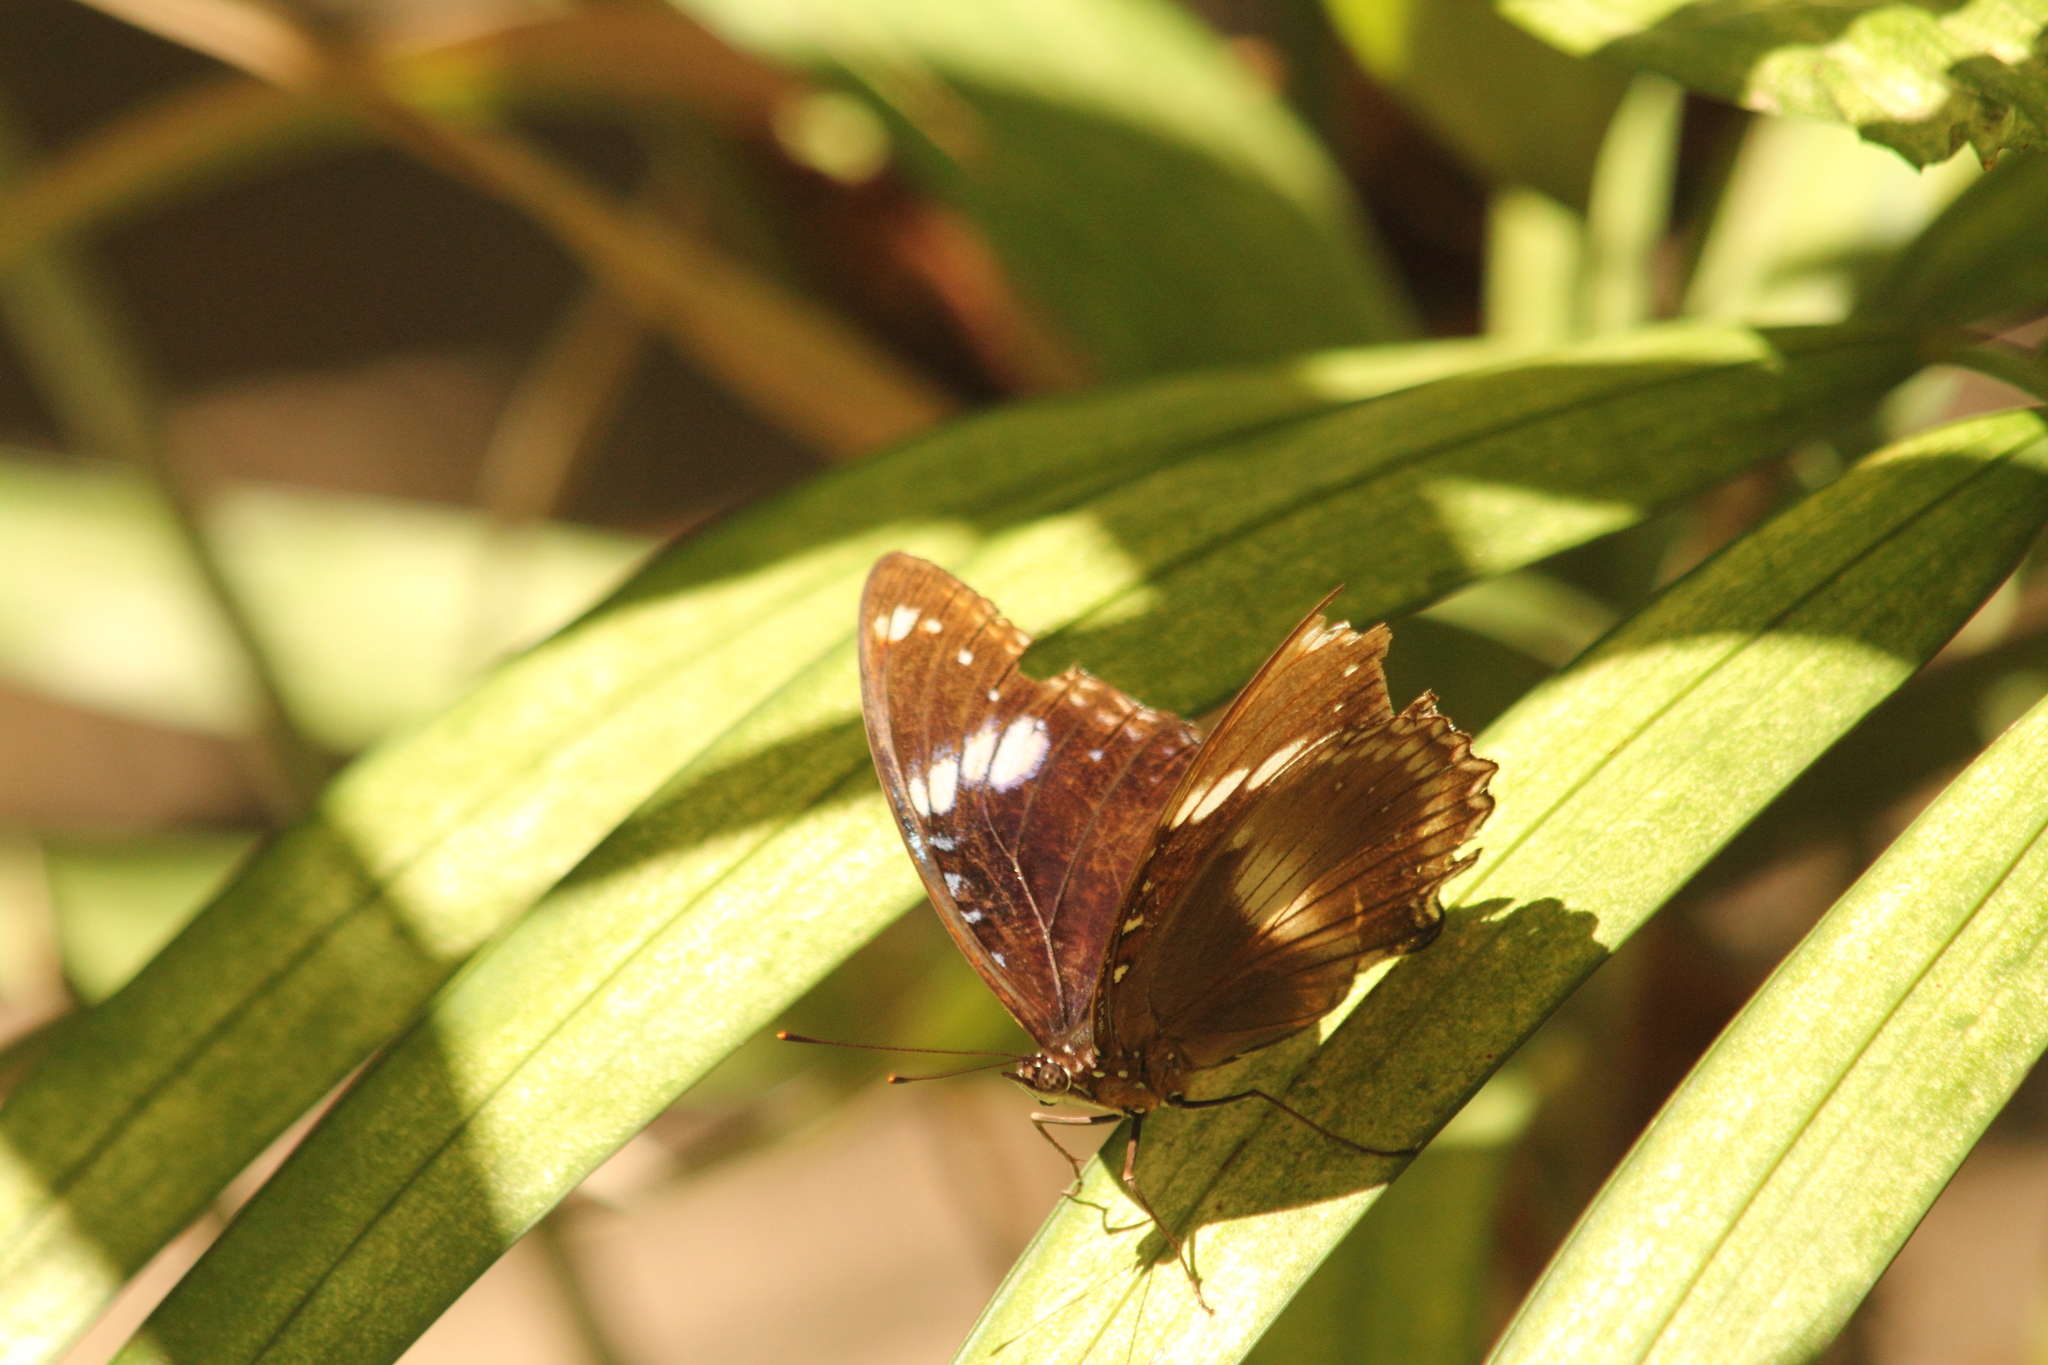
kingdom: Animalia
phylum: Arthropoda
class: Insecta
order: Lepidoptera
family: Nymphalidae
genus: Hypolimnas
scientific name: Hypolimnas bolina
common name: Great eggfly
